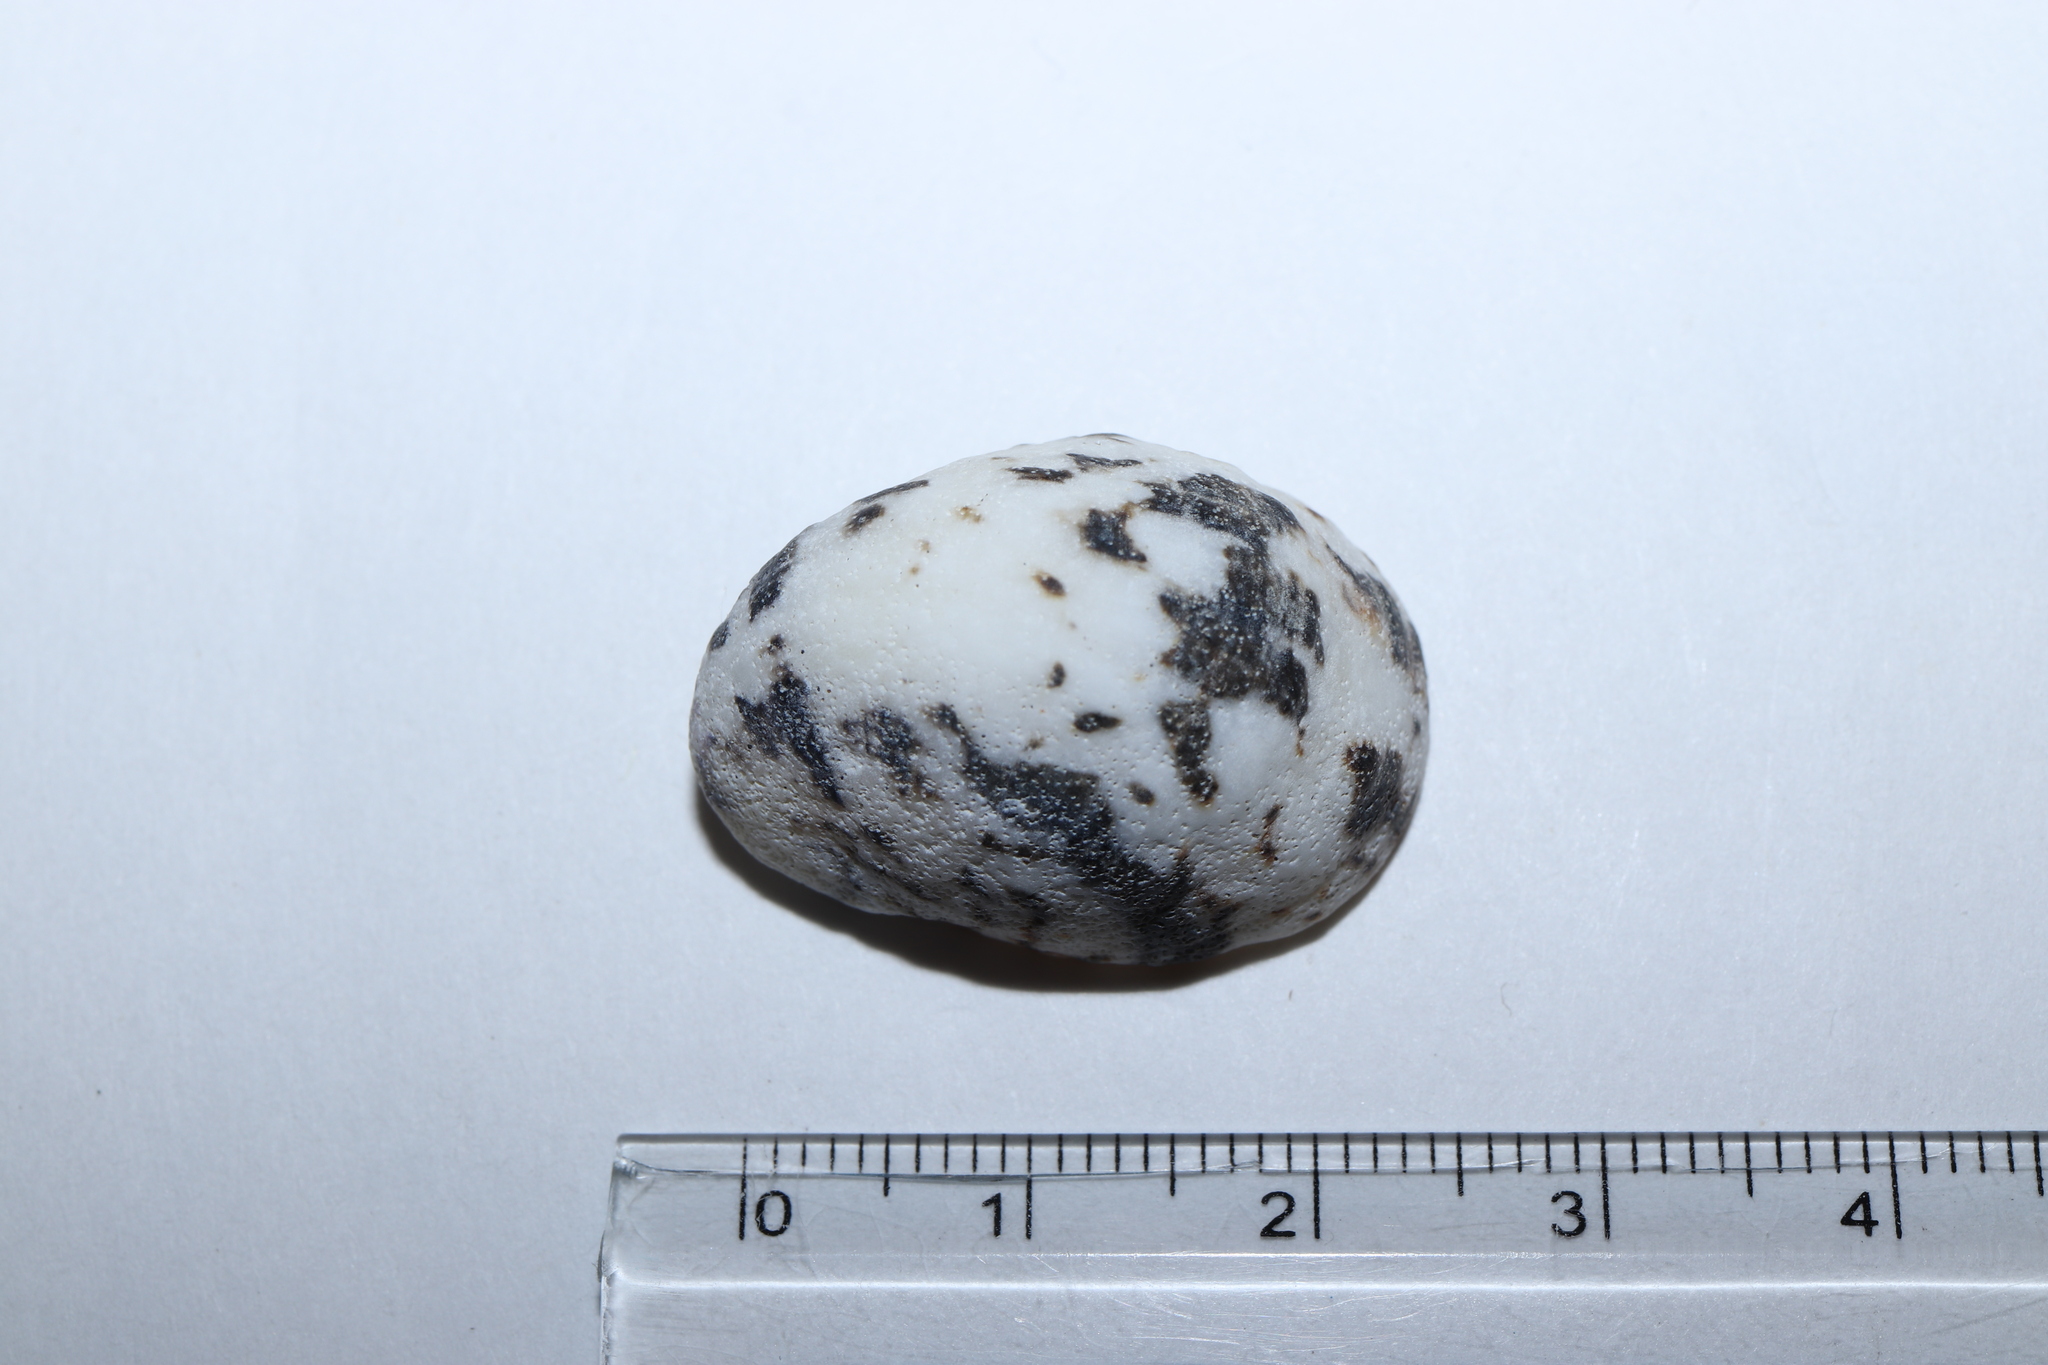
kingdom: Animalia
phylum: Mollusca
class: Gastropoda
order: Cycloneritida
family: Neritidae
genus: Nerita
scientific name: Nerita albicilla
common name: Blotched nerite
